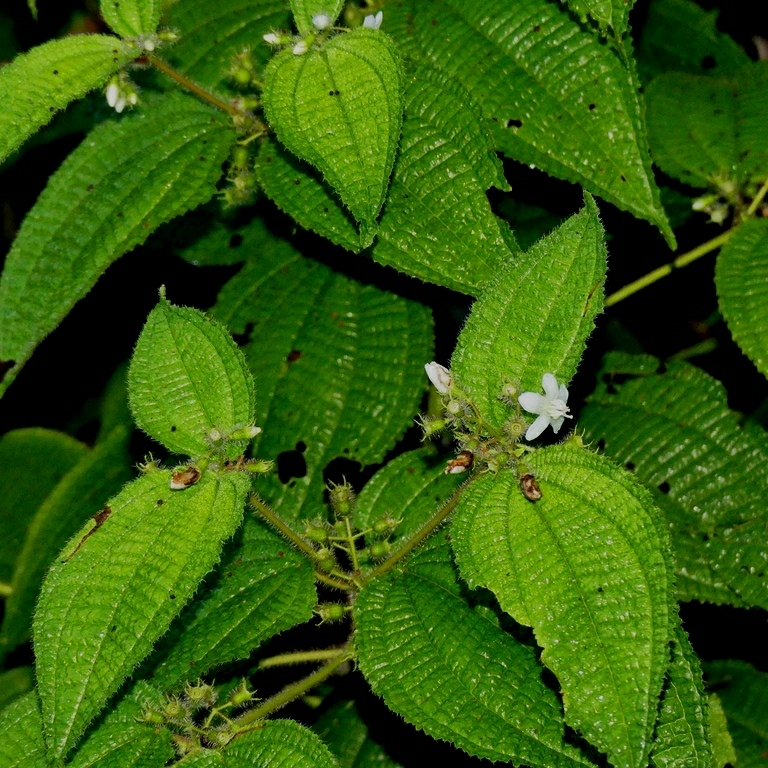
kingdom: Plantae
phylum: Tracheophyta
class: Magnoliopsida
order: Myrtales
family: Melastomataceae
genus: Miconia
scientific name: Miconia crenata
